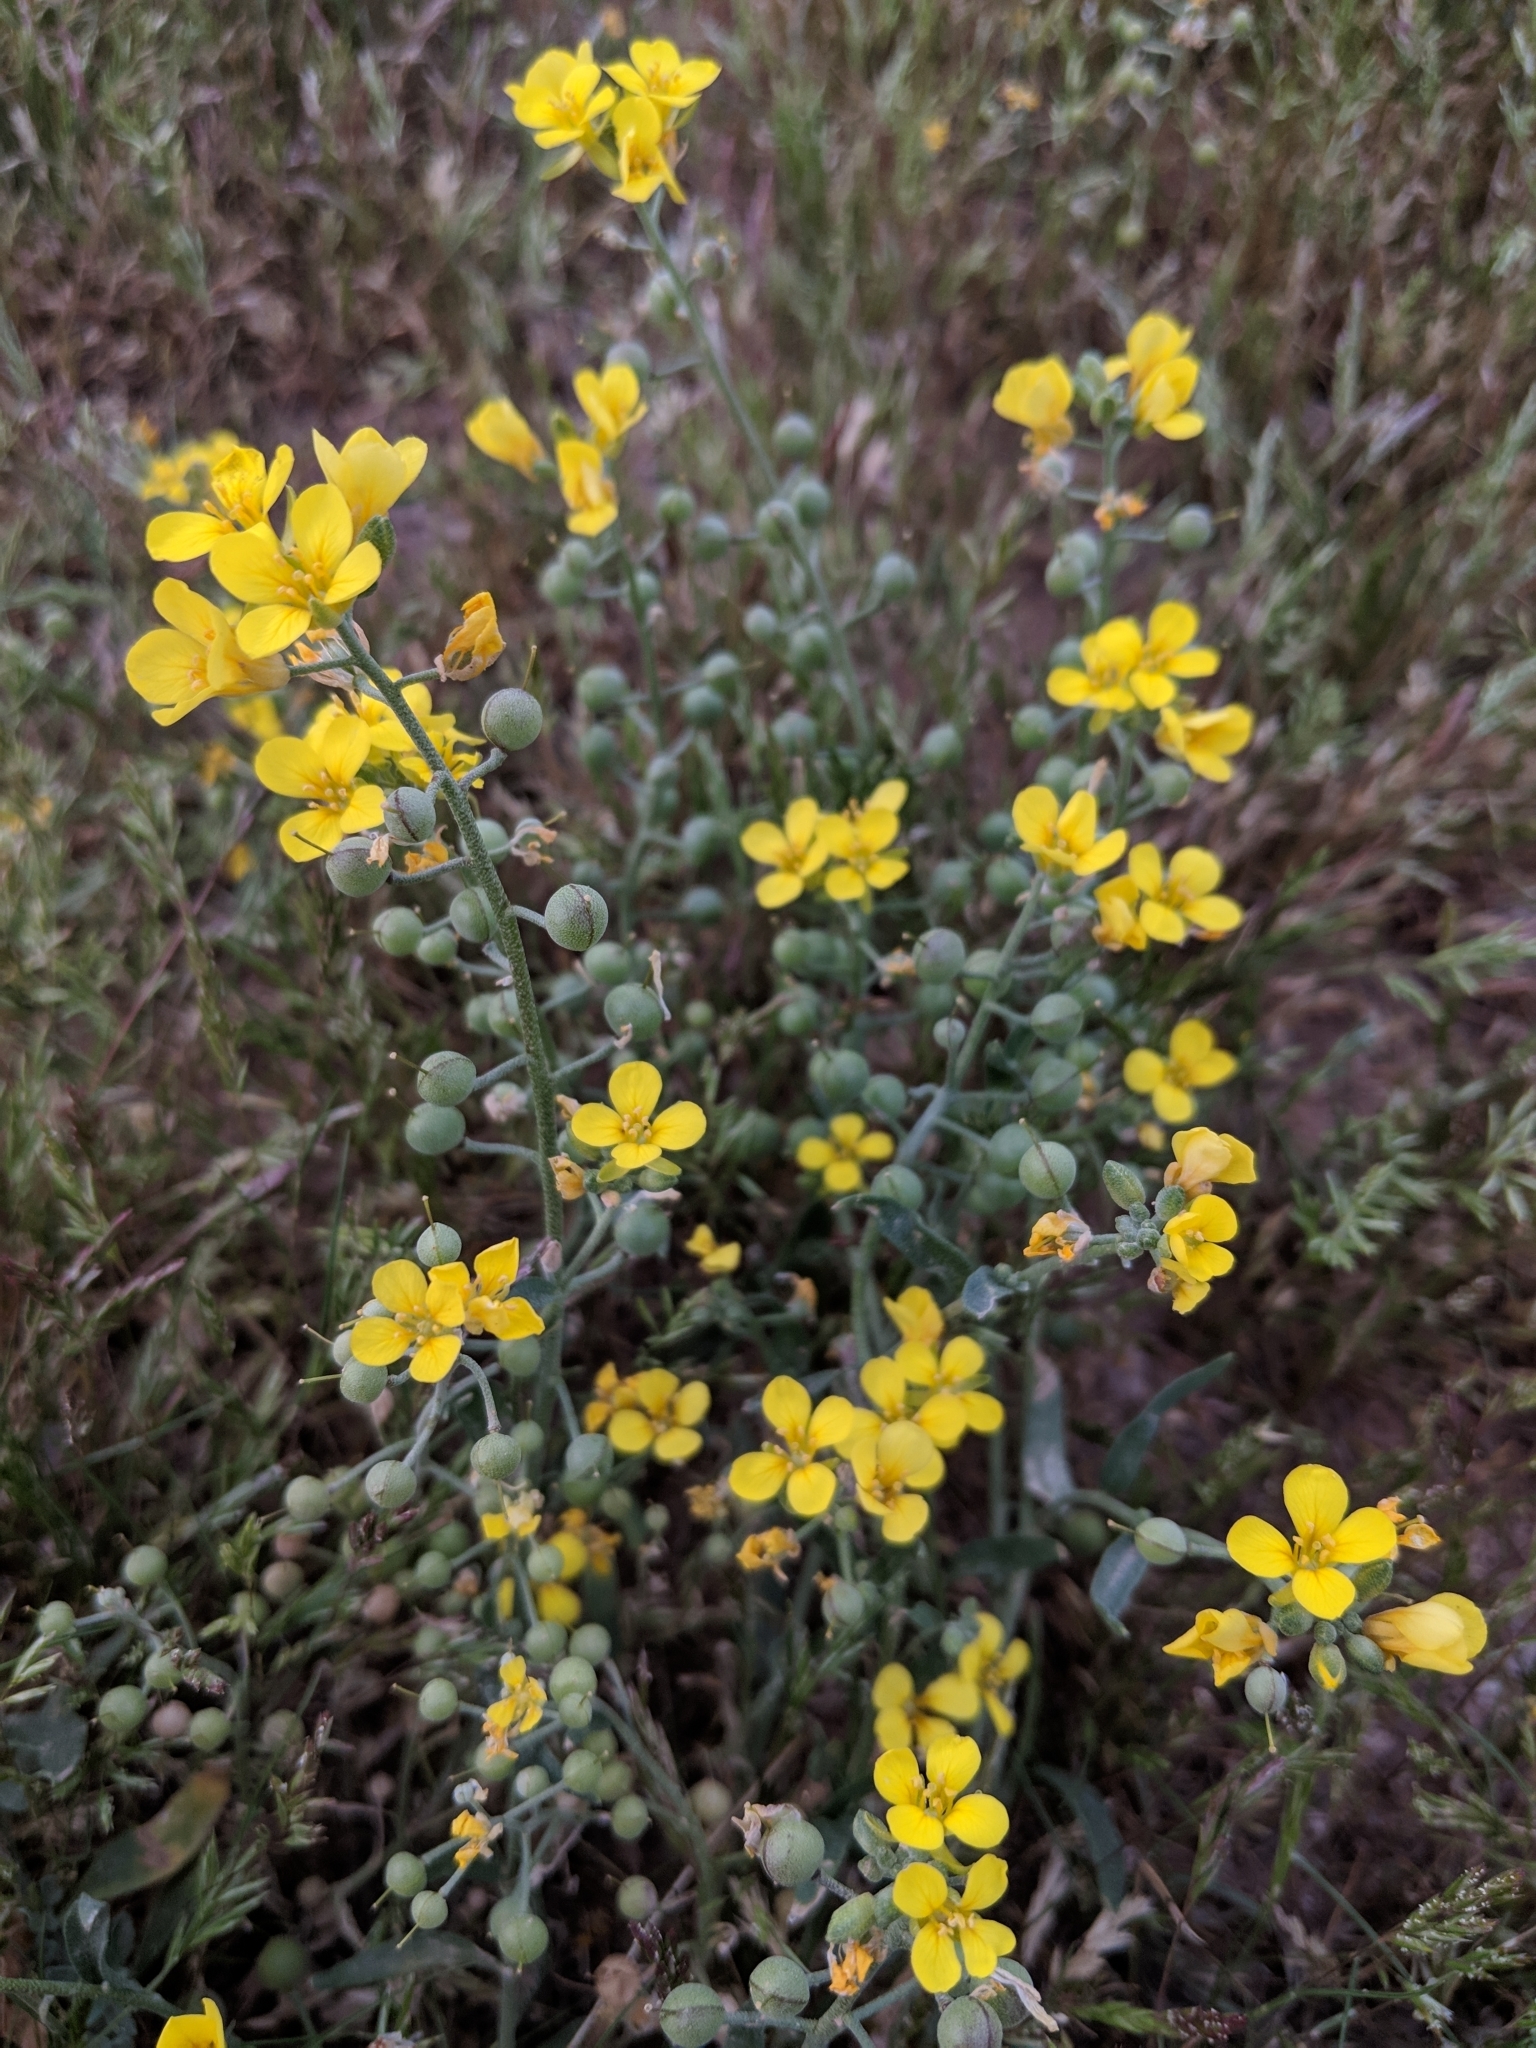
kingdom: Plantae
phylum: Tracheophyta
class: Magnoliopsida
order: Brassicales
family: Brassicaceae
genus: Physaria
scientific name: Physaria tenella
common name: Moapa bladderpod
